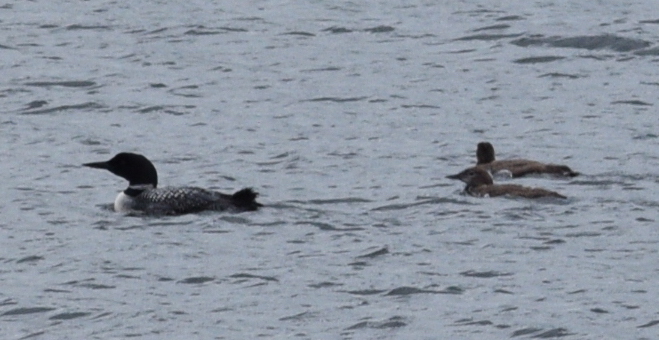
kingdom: Animalia
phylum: Chordata
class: Aves
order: Gaviiformes
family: Gaviidae
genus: Gavia
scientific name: Gavia immer
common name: Common loon
